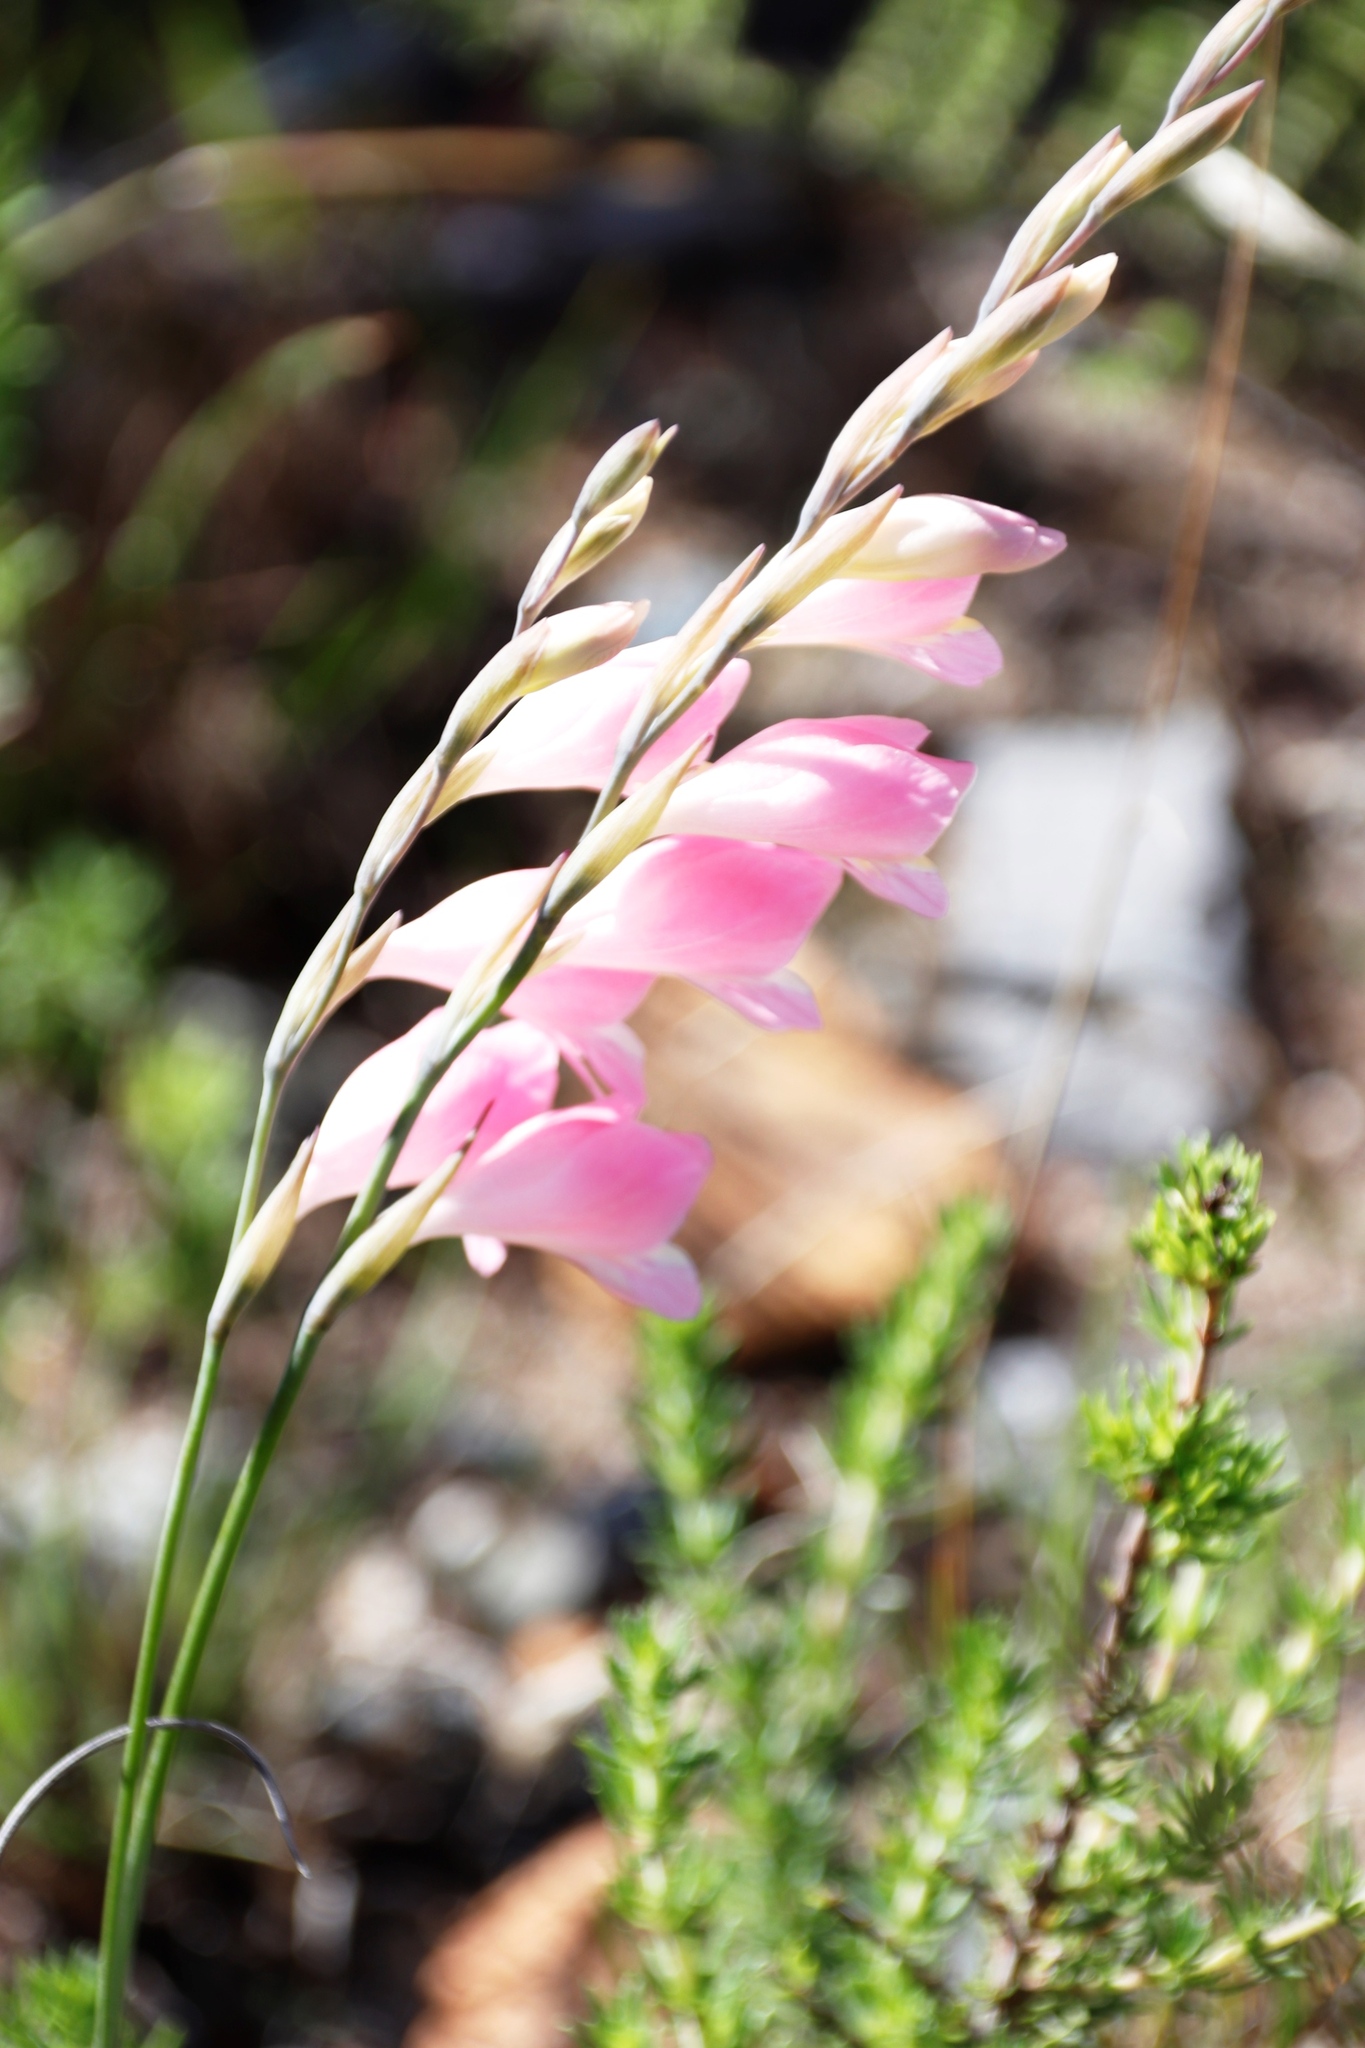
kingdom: Plantae
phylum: Tracheophyta
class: Liliopsida
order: Asparagales
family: Iridaceae
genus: Gladiolus
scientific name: Gladiolus brevifolius
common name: March pypie
